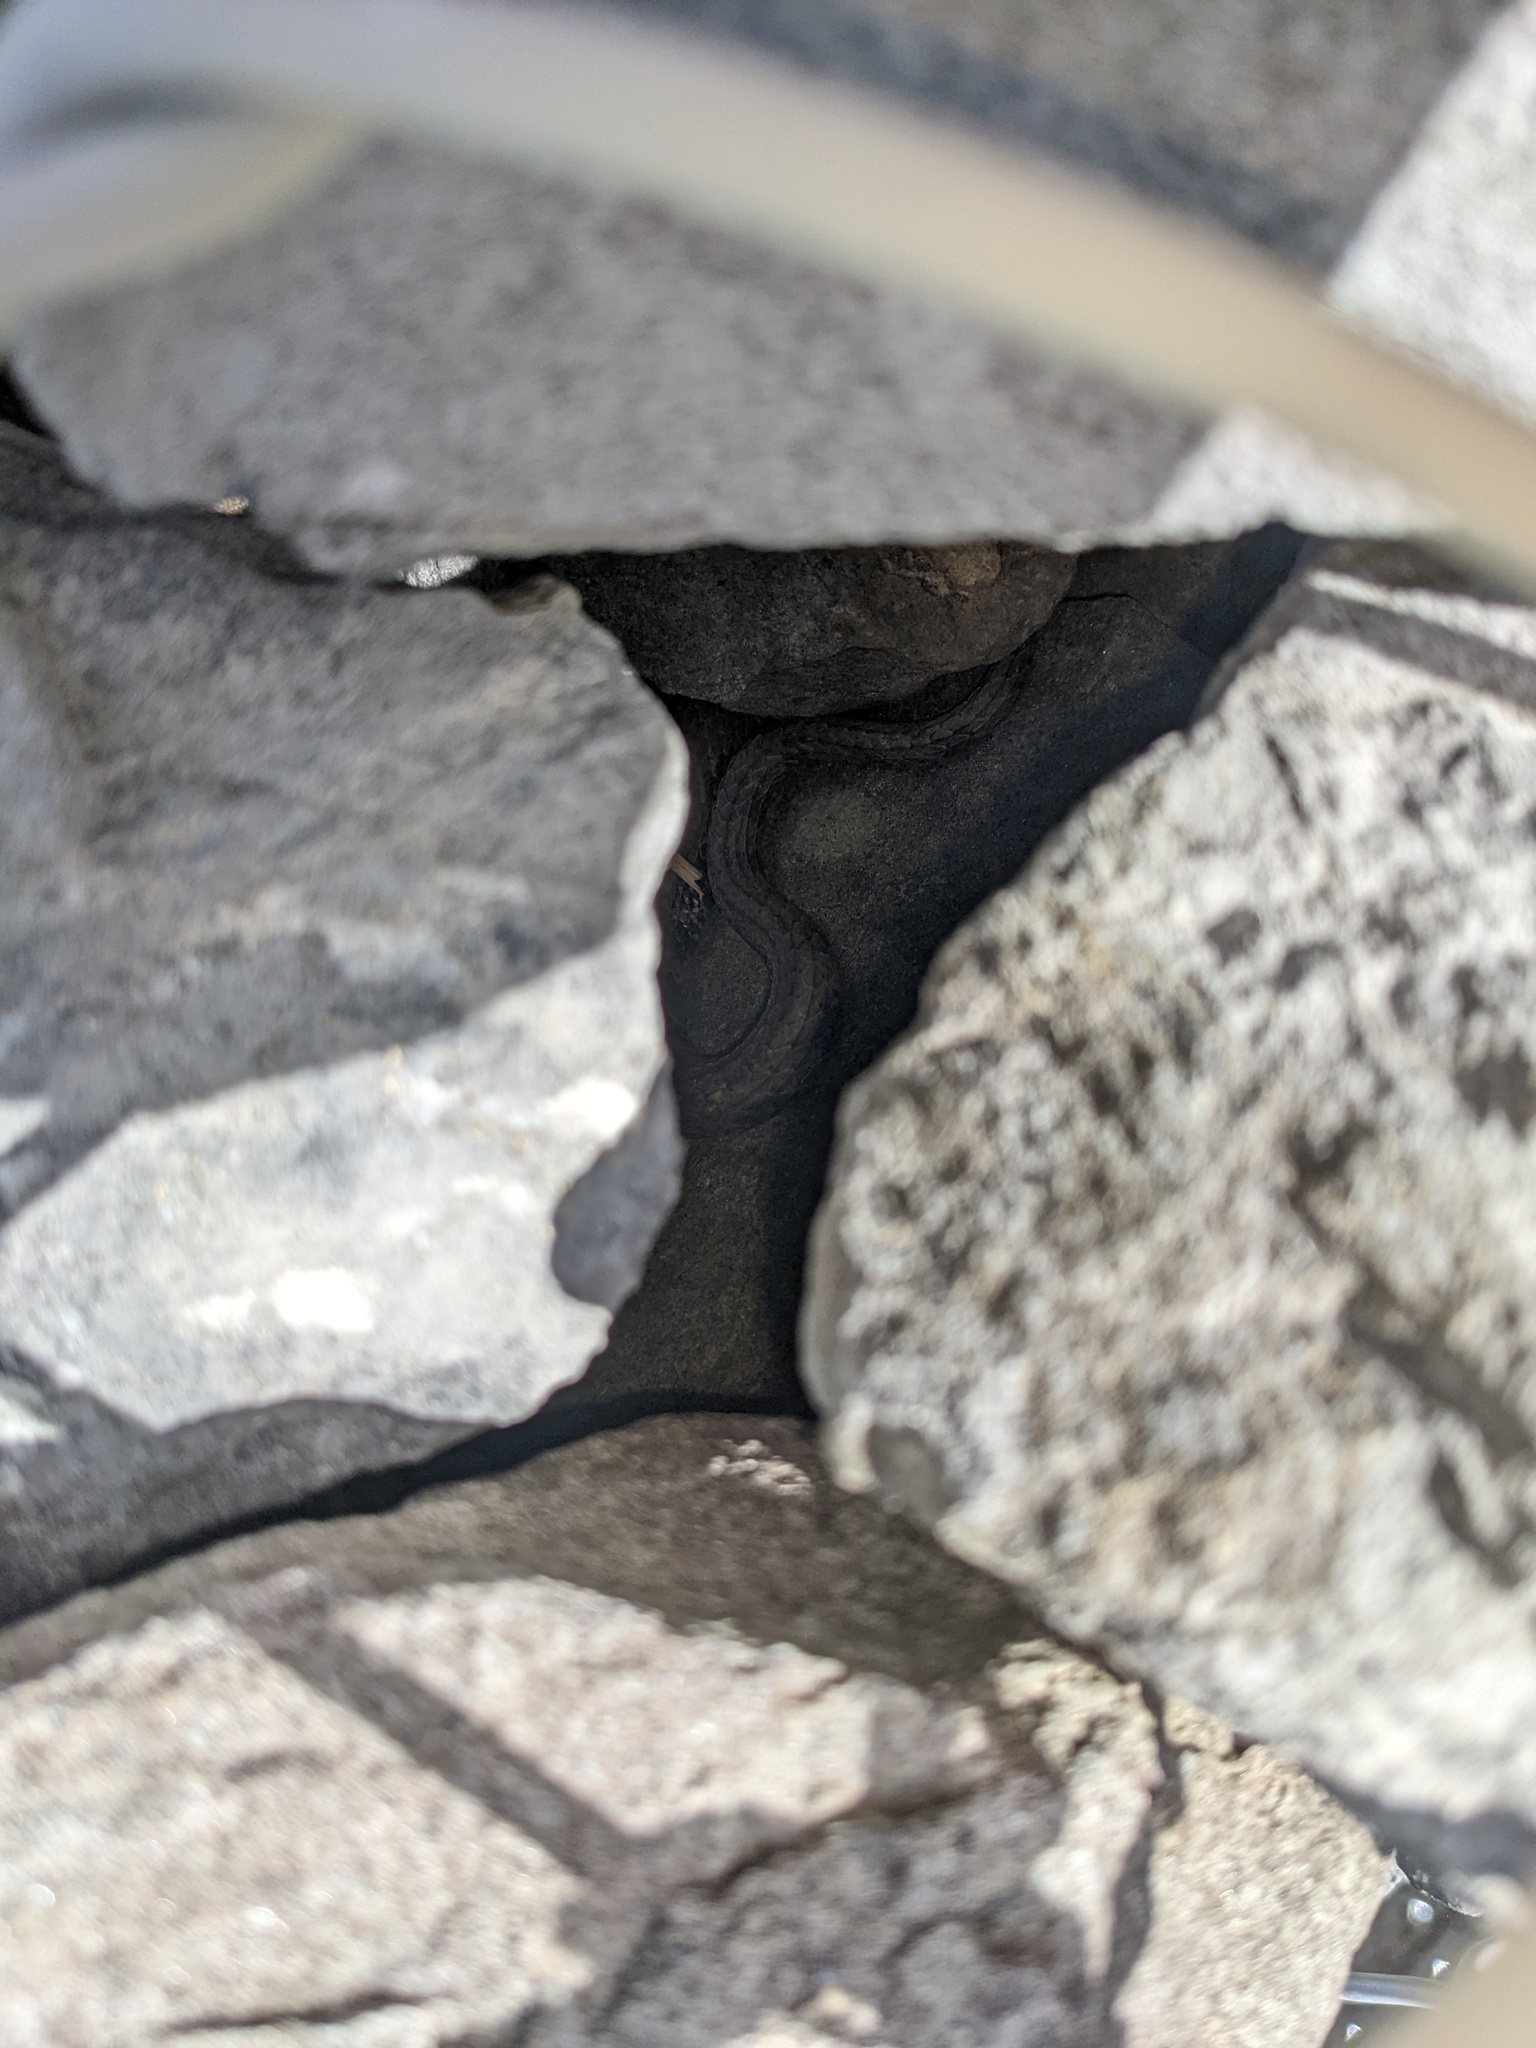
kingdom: Animalia
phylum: Chordata
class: Squamata
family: Colubridae
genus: Nerodia
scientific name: Nerodia sipedon
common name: Northern water snake
